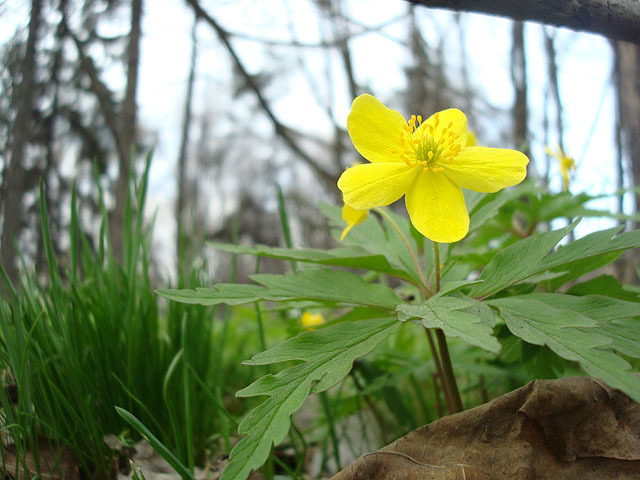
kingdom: Plantae
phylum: Tracheophyta
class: Magnoliopsida
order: Ranunculales
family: Ranunculaceae
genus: Anemone
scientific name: Anemone ranunculoides
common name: Yellow anemone
